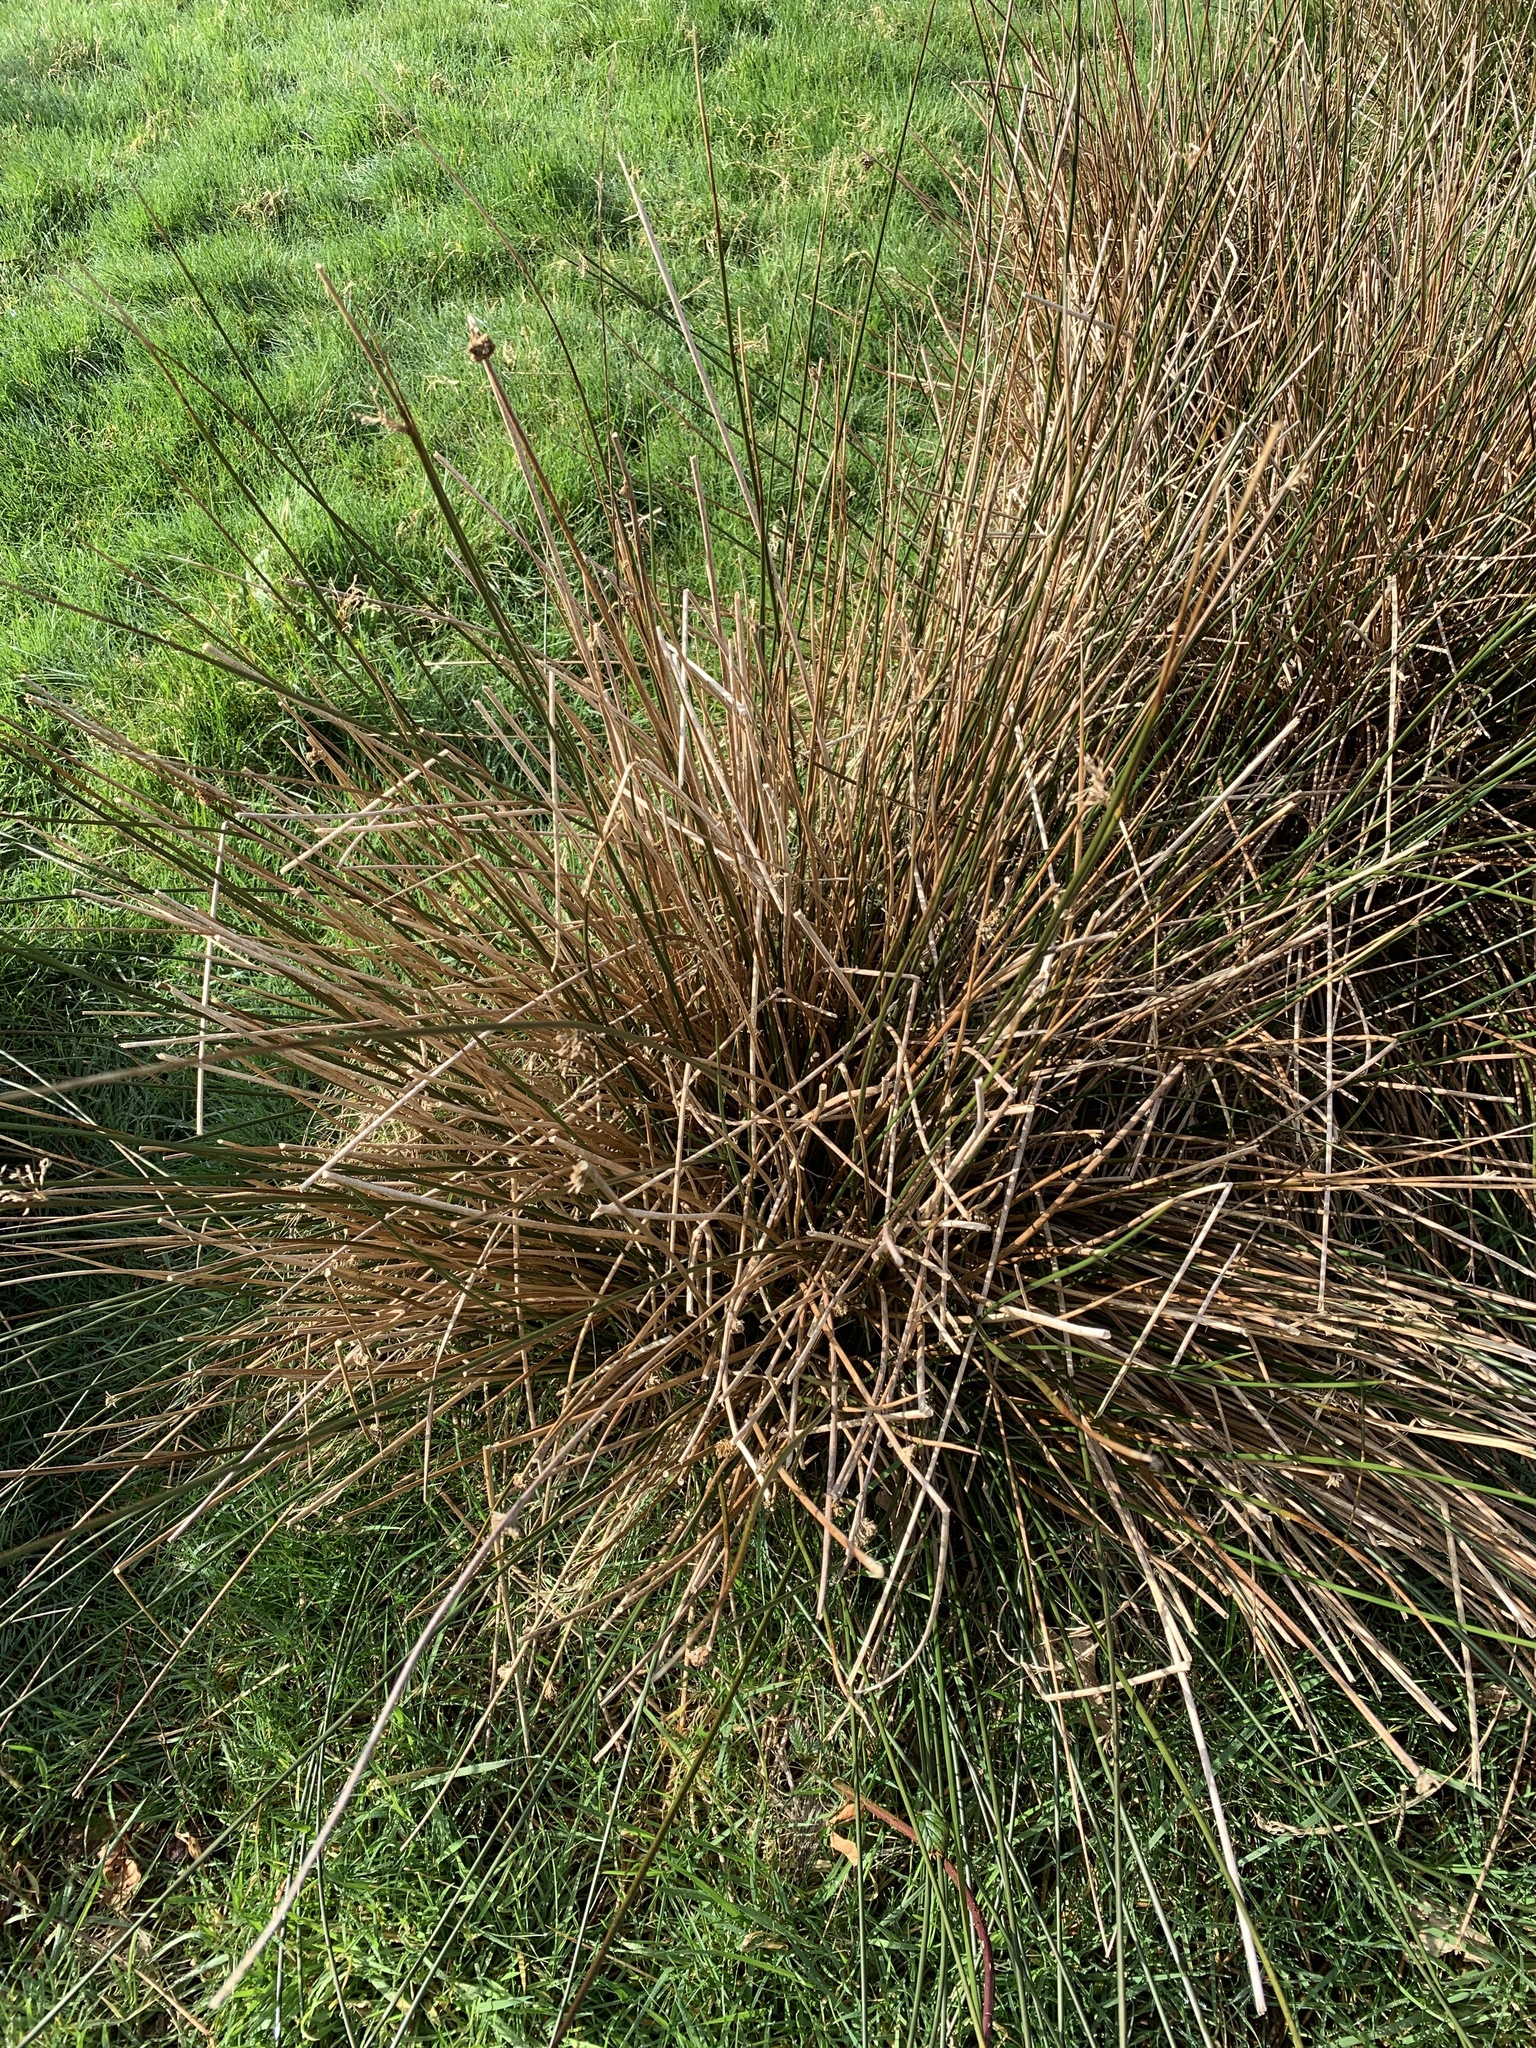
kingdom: Plantae
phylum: Tracheophyta
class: Liliopsida
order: Poales
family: Juncaceae
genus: Juncus
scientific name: Juncus effusus
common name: Soft rush
